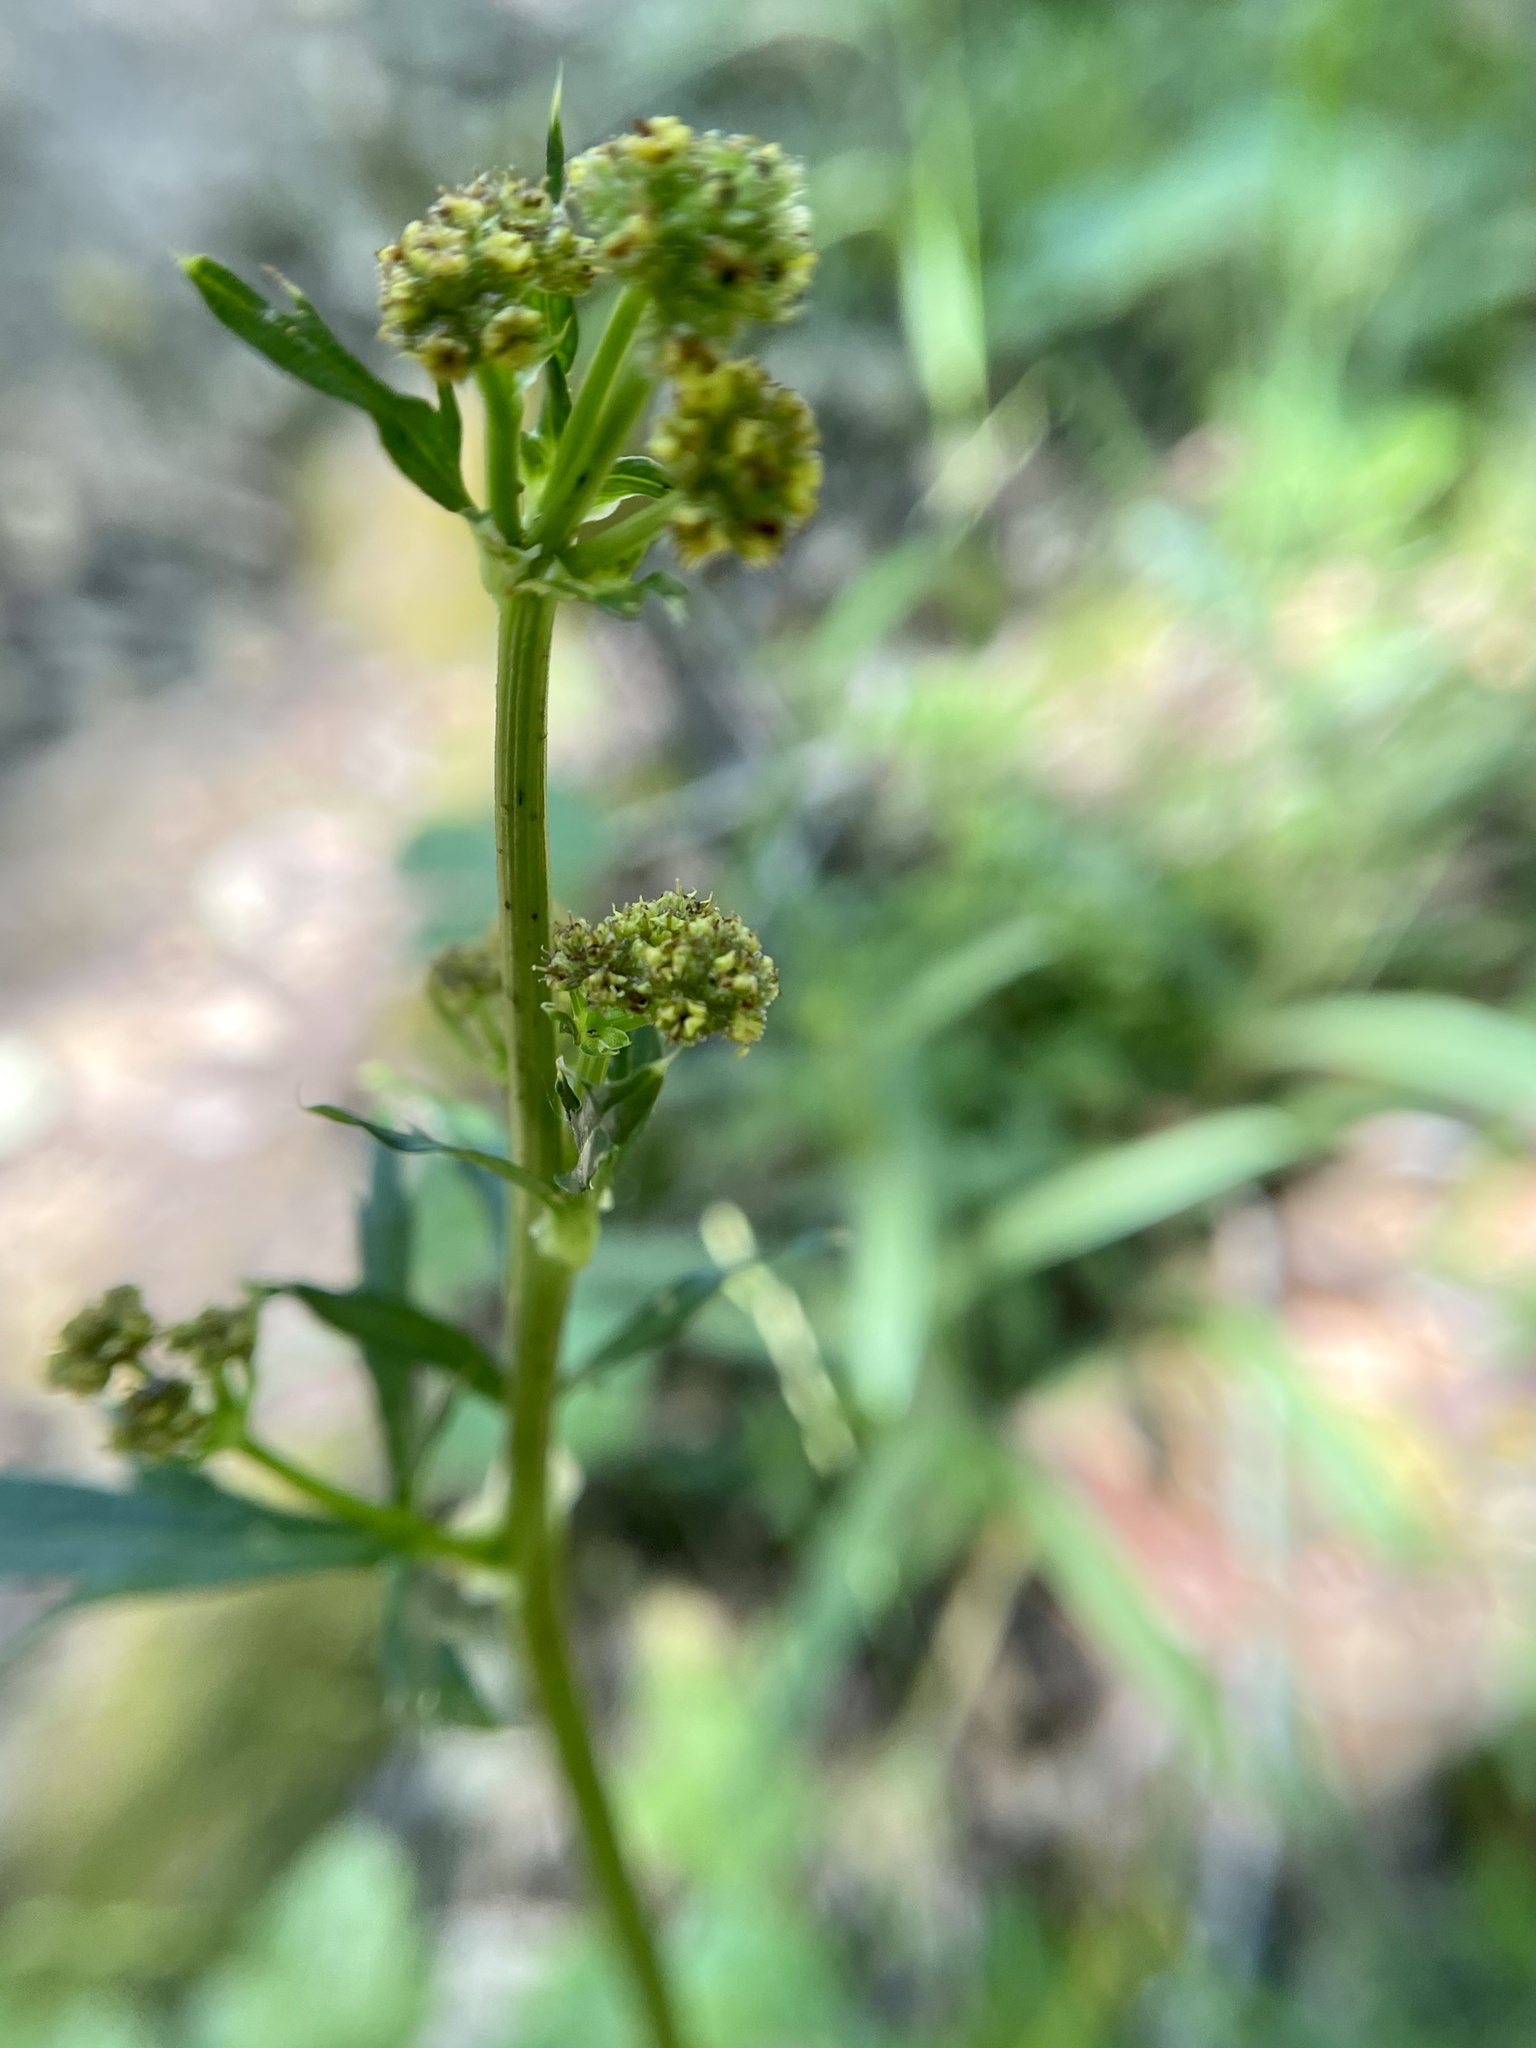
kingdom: Plantae
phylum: Tracheophyta
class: Magnoliopsida
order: Apiales
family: Apiaceae
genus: Sanicula
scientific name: Sanicula crassicaulis
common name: Western snakeroot
